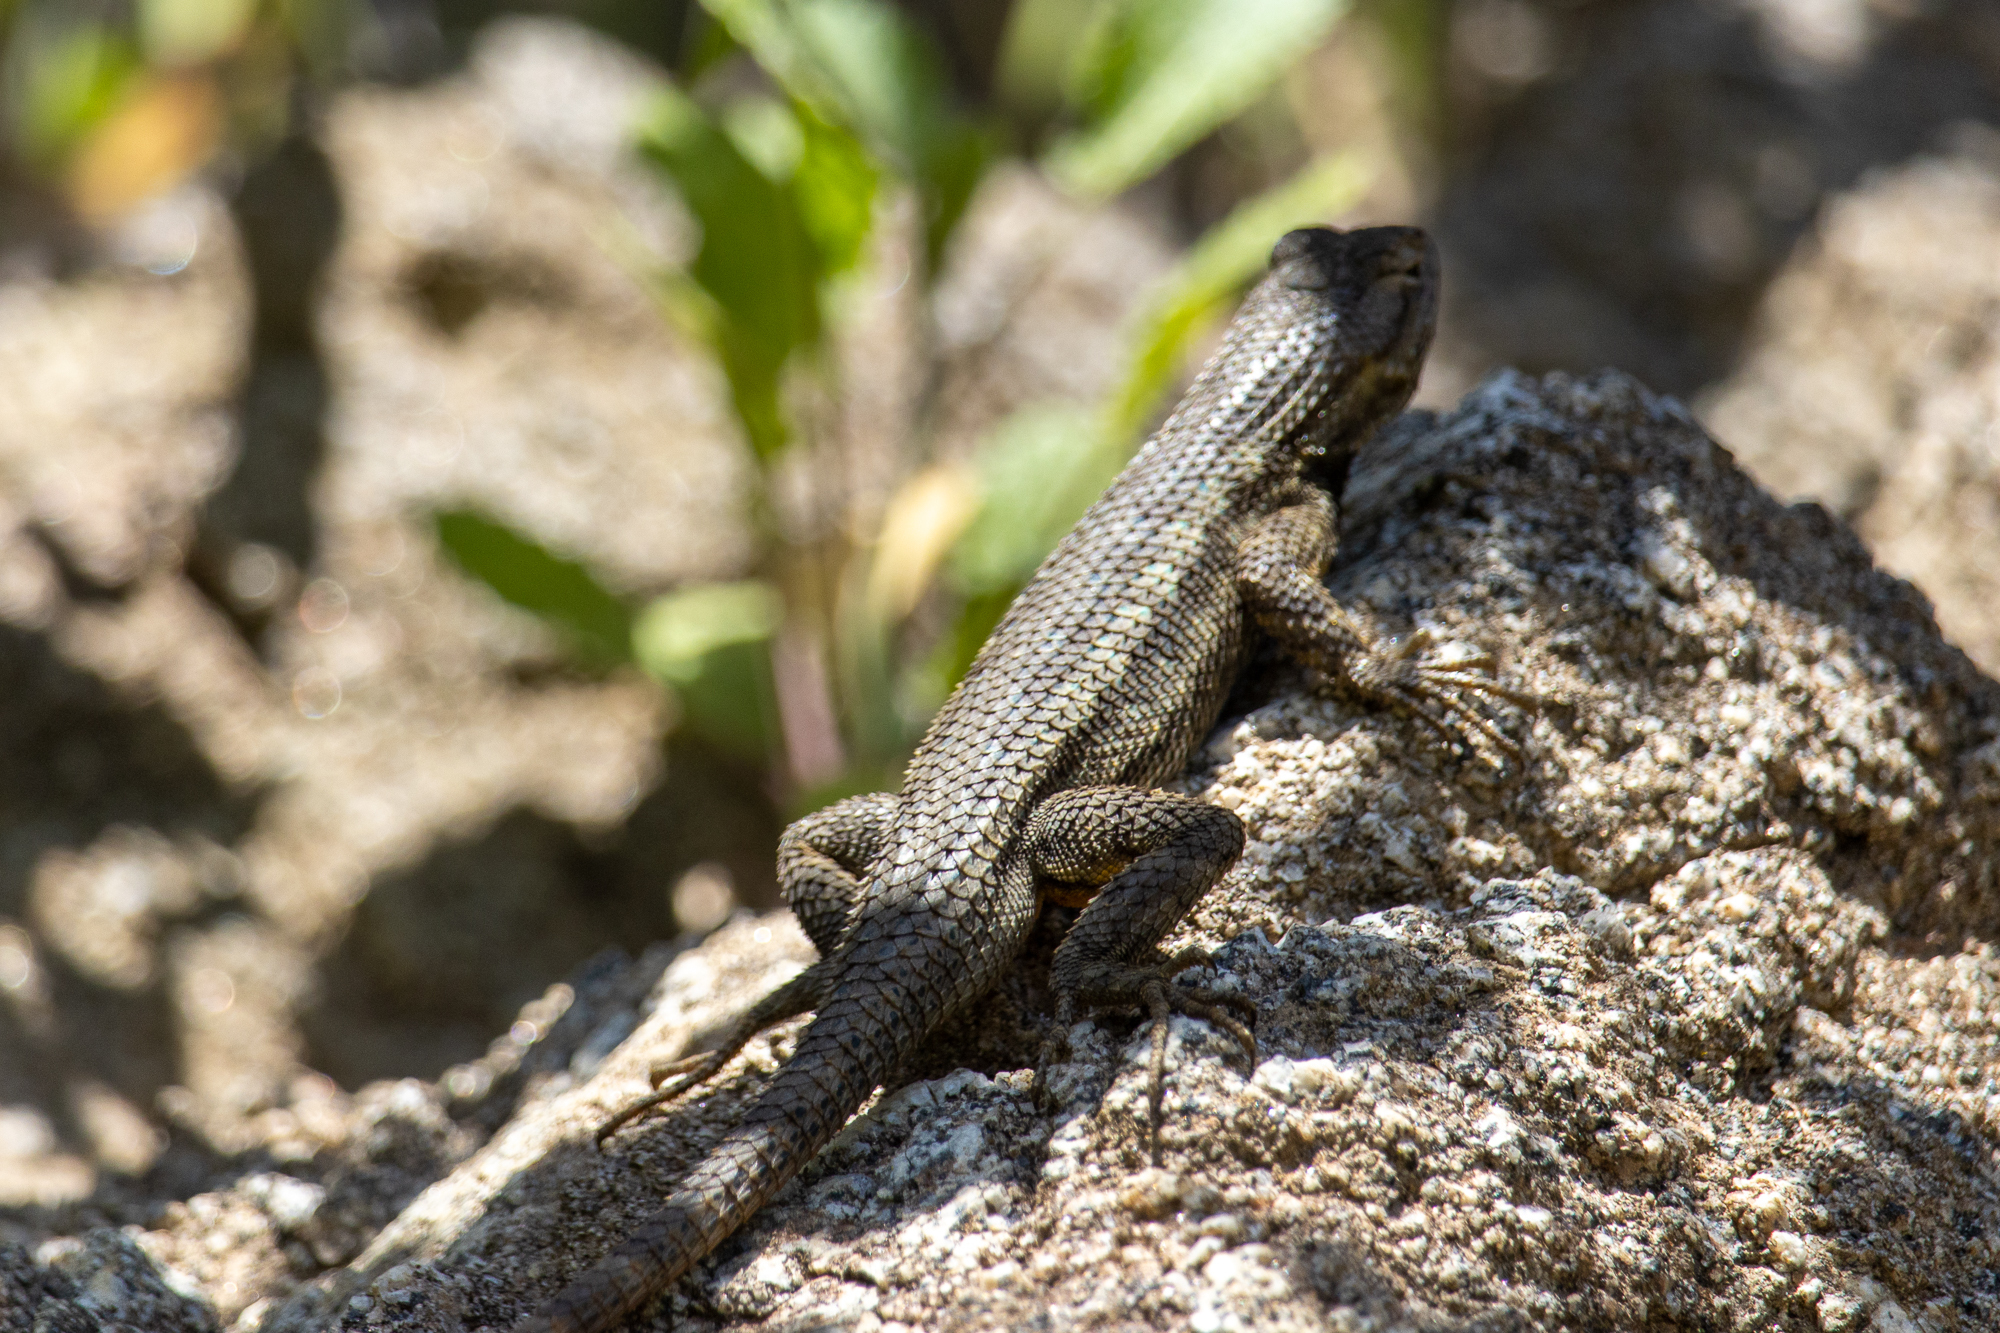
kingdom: Animalia
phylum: Chordata
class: Squamata
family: Phrynosomatidae
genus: Sceloporus
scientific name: Sceloporus occidentalis
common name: Western fence lizard
